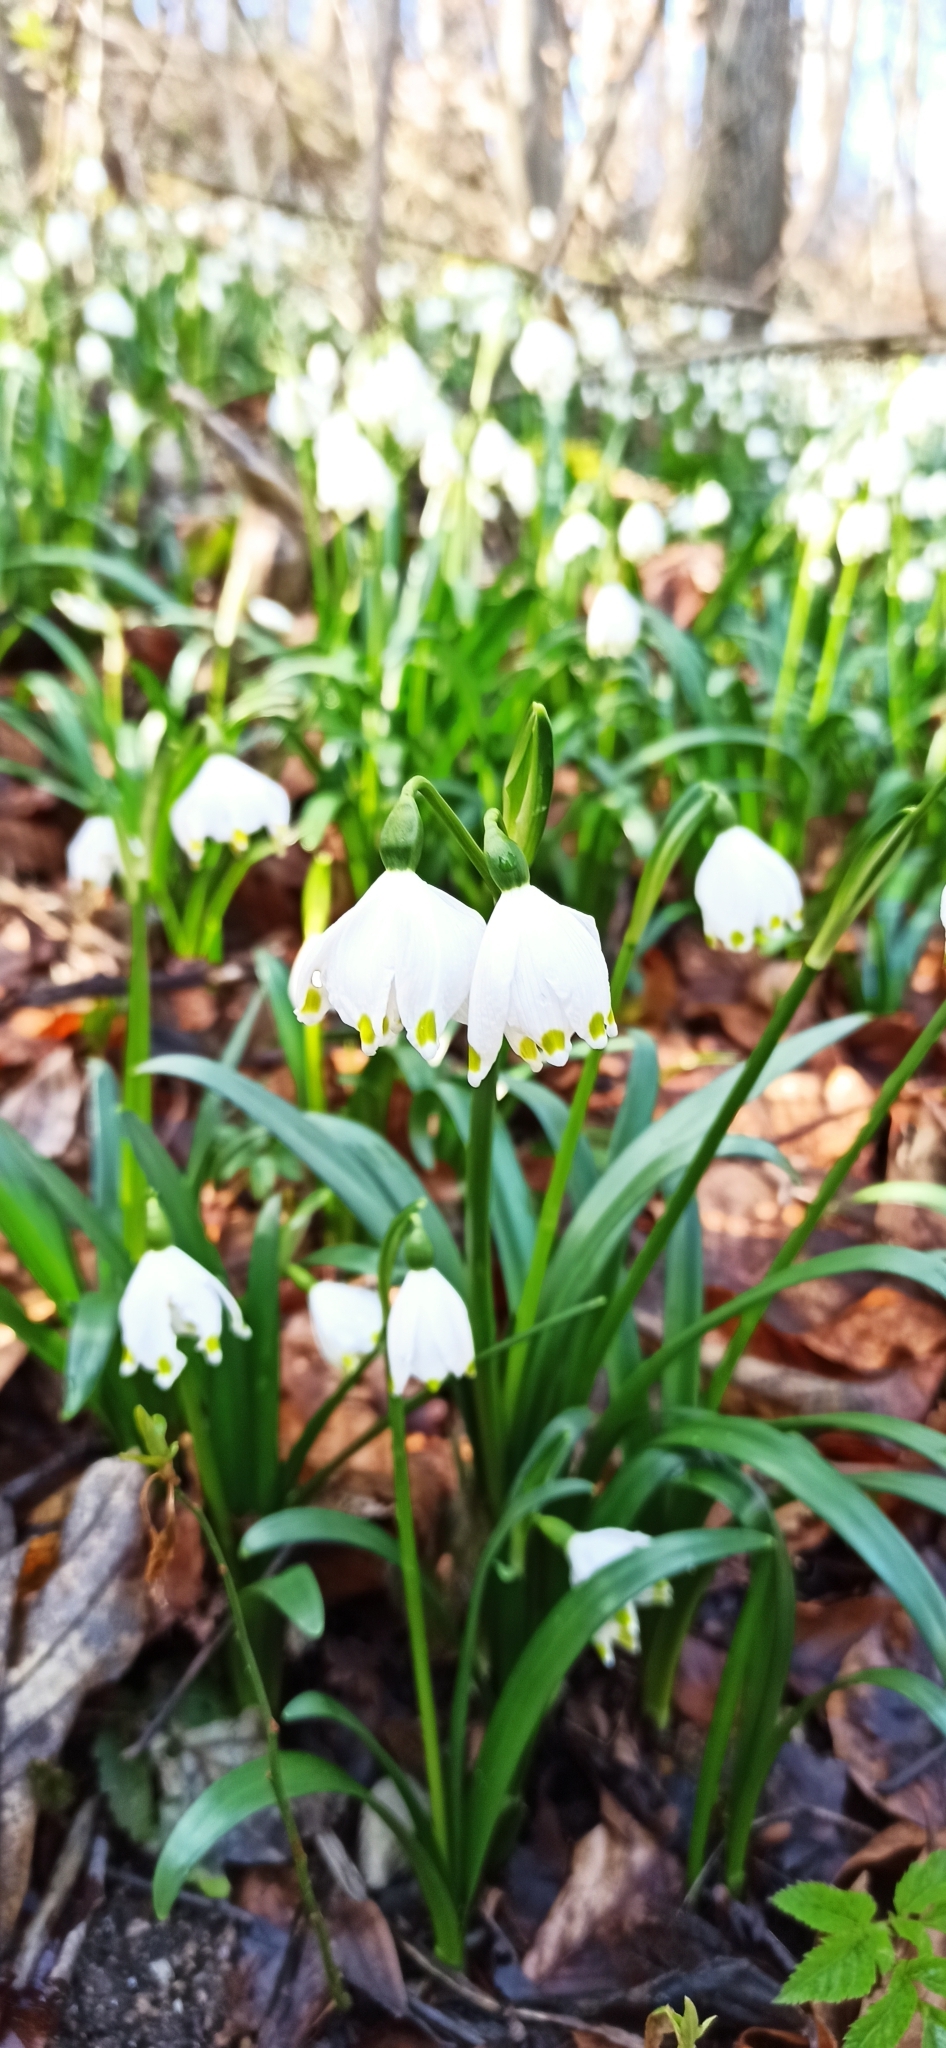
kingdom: Plantae
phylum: Tracheophyta
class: Liliopsida
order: Asparagales
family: Amaryllidaceae
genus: Leucojum
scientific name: Leucojum vernum
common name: Spring snowflake
